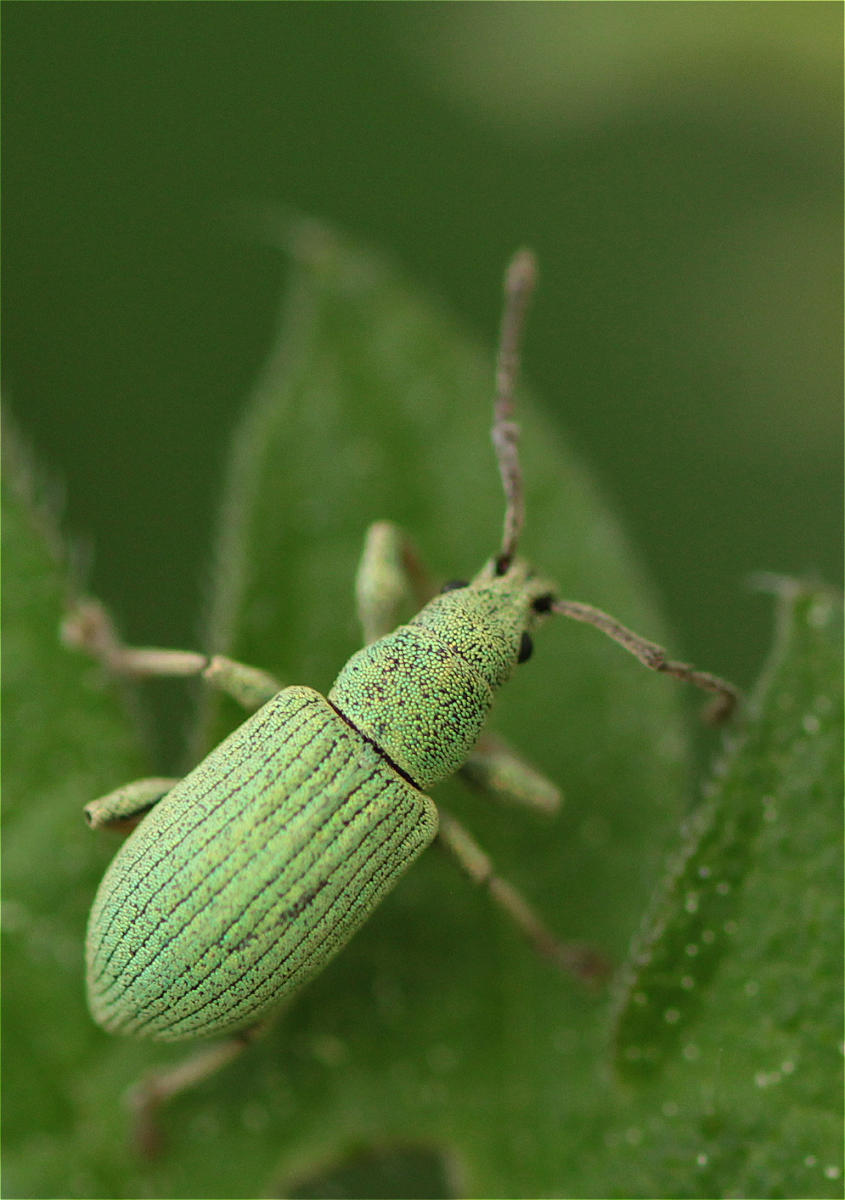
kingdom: Animalia
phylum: Arthropoda
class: Insecta
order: Coleoptera
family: Curculionidae
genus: Phyllobius
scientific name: Phyllobius virideaeris
